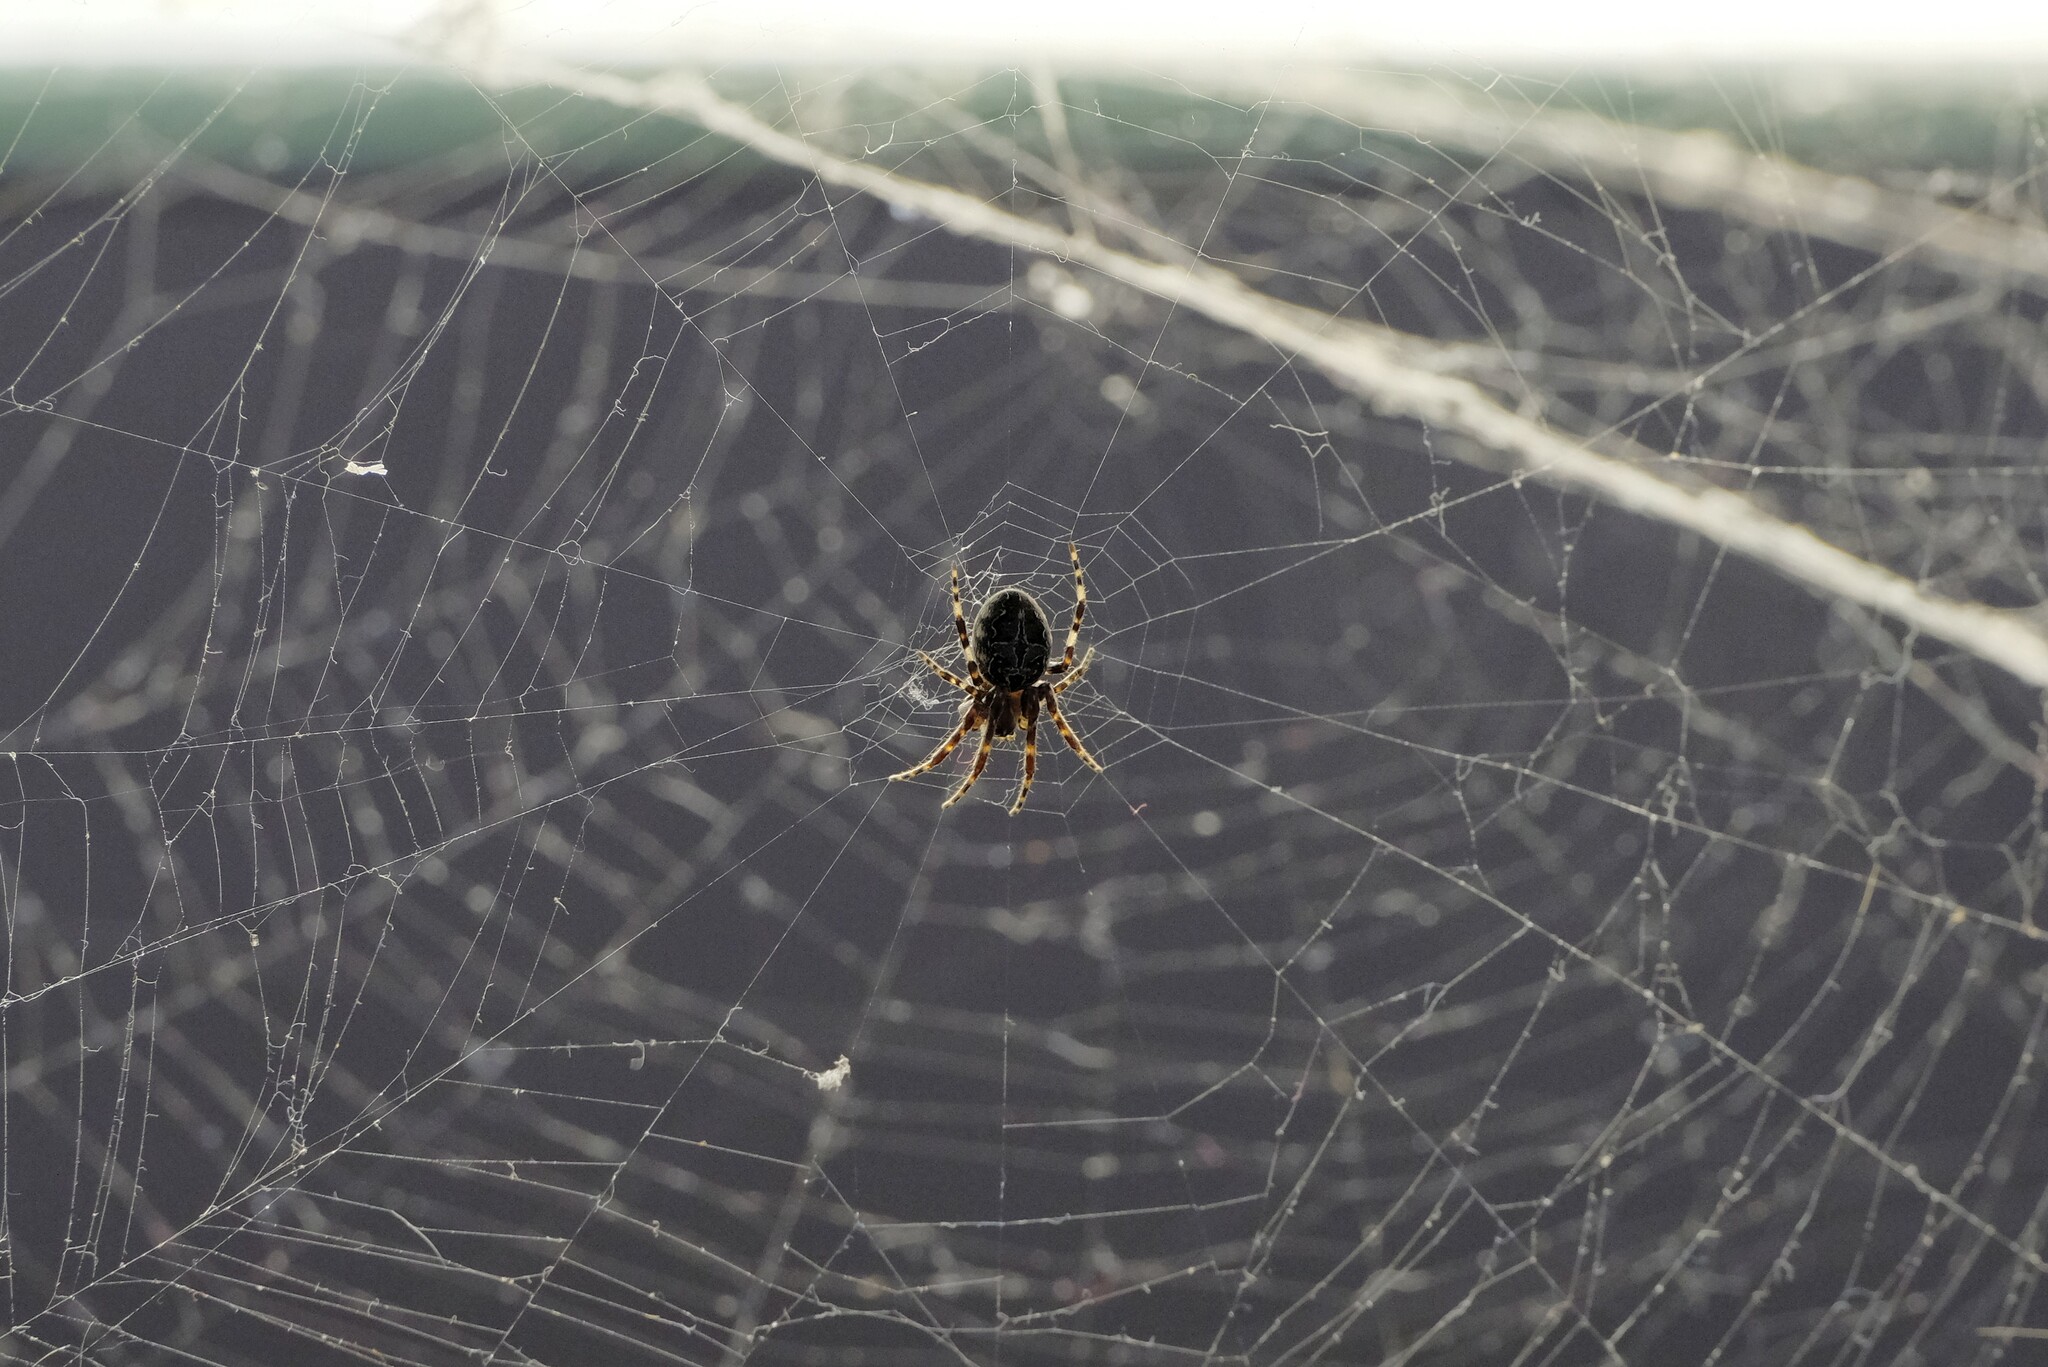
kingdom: Animalia
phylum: Arthropoda
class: Arachnida
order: Araneae
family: Araneidae
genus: Larinioides
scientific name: Larinioides sclopetarius
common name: Bridge orbweaver
